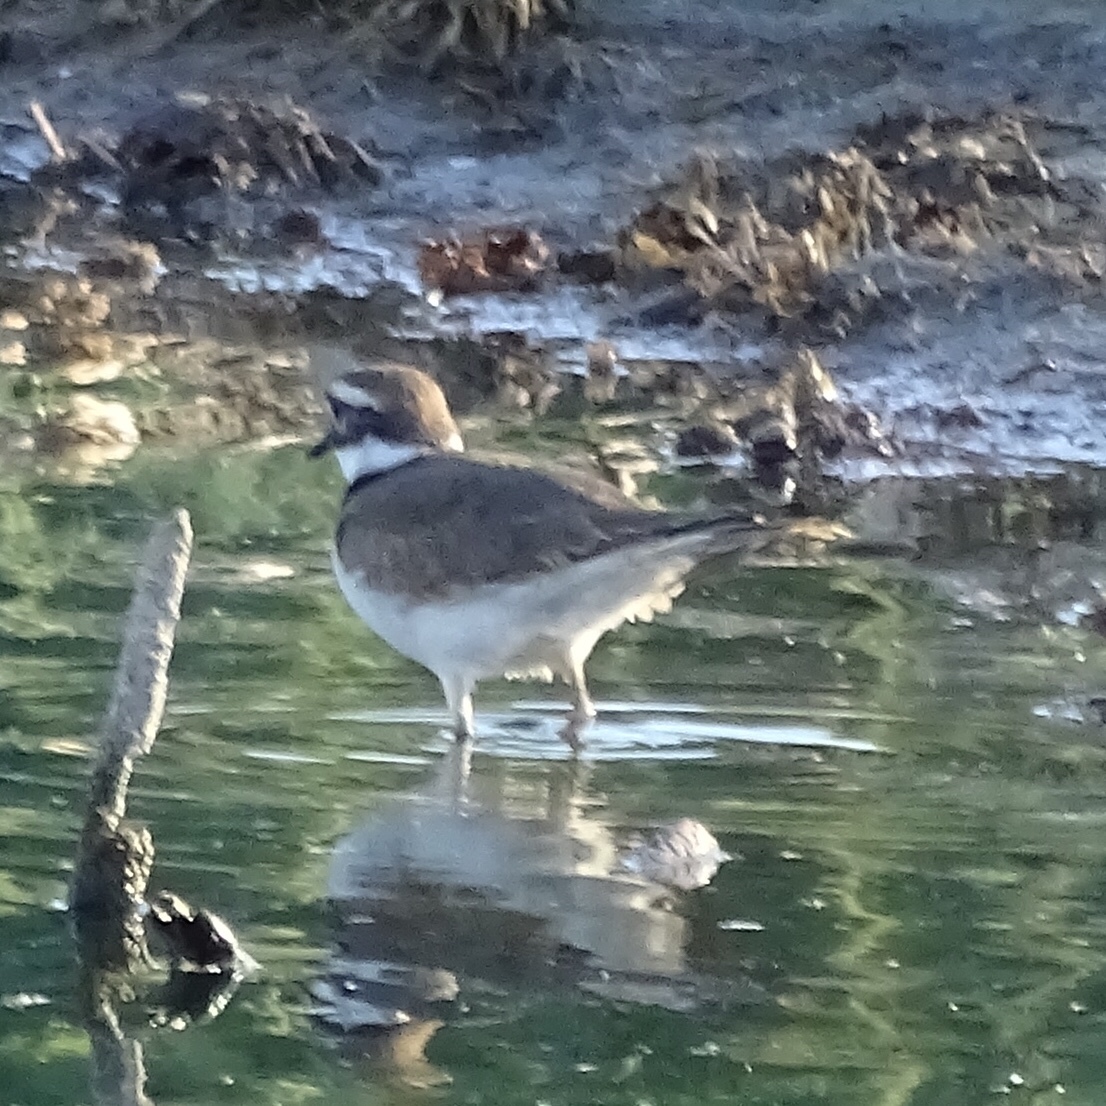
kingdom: Animalia
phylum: Chordata
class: Aves
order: Charadriiformes
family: Charadriidae
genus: Charadrius
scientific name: Charadrius vociferus
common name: Killdeer
